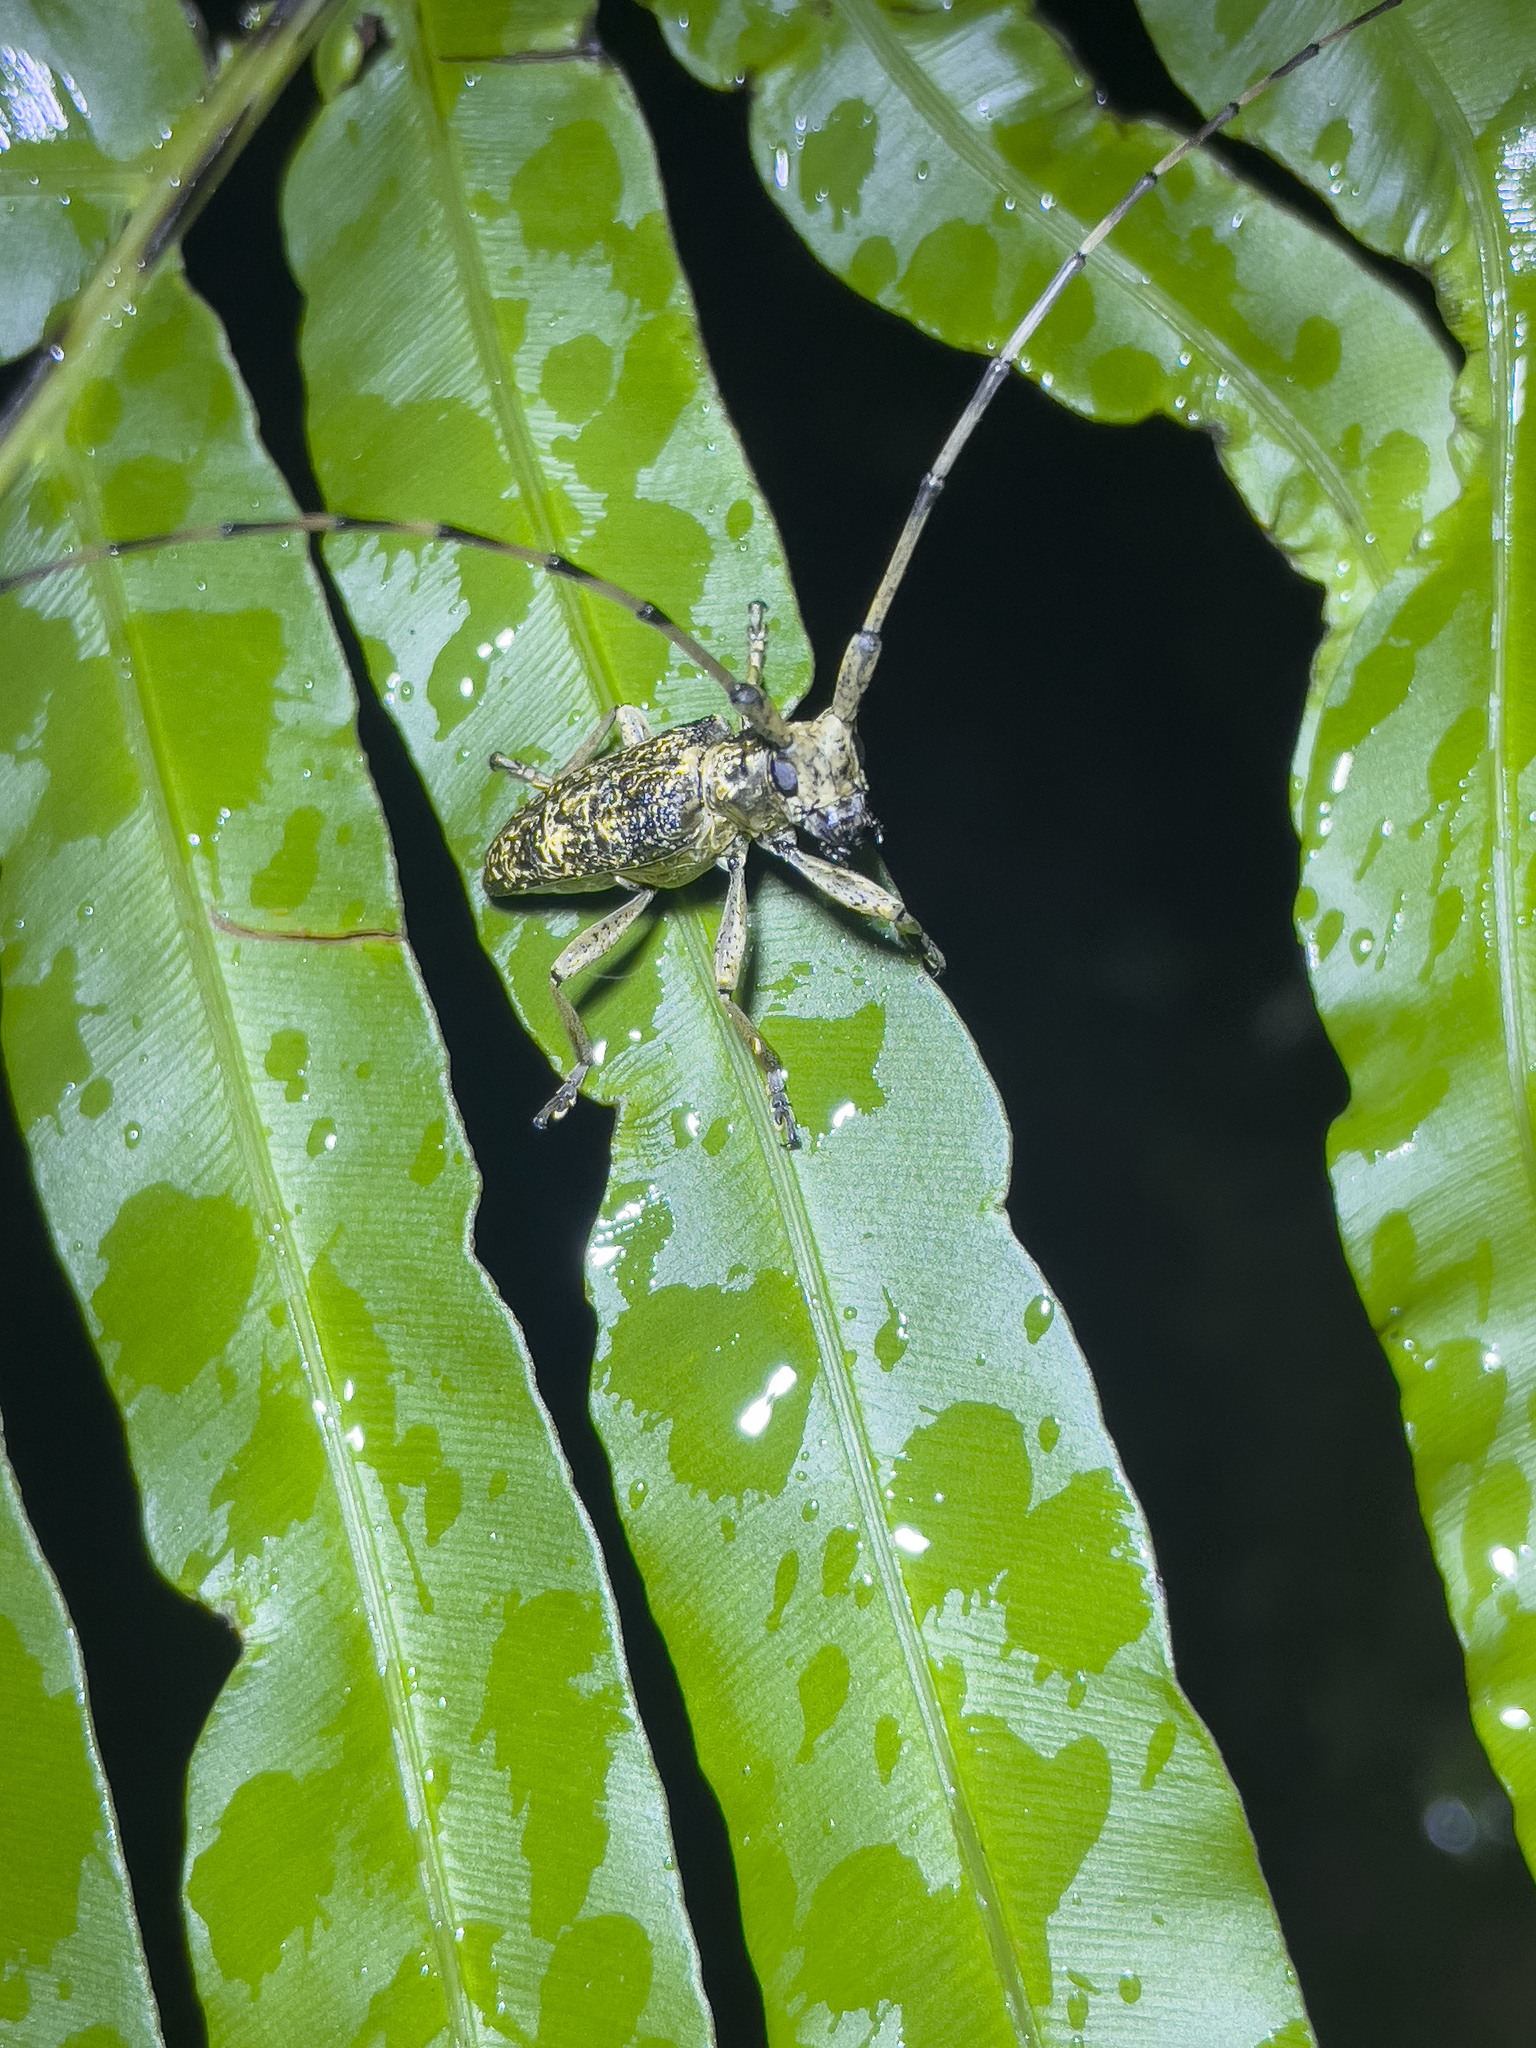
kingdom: Animalia
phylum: Arthropoda
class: Insecta
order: Coleoptera
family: Cerambycidae
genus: Acalolepta
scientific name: Acalolepta permutans
